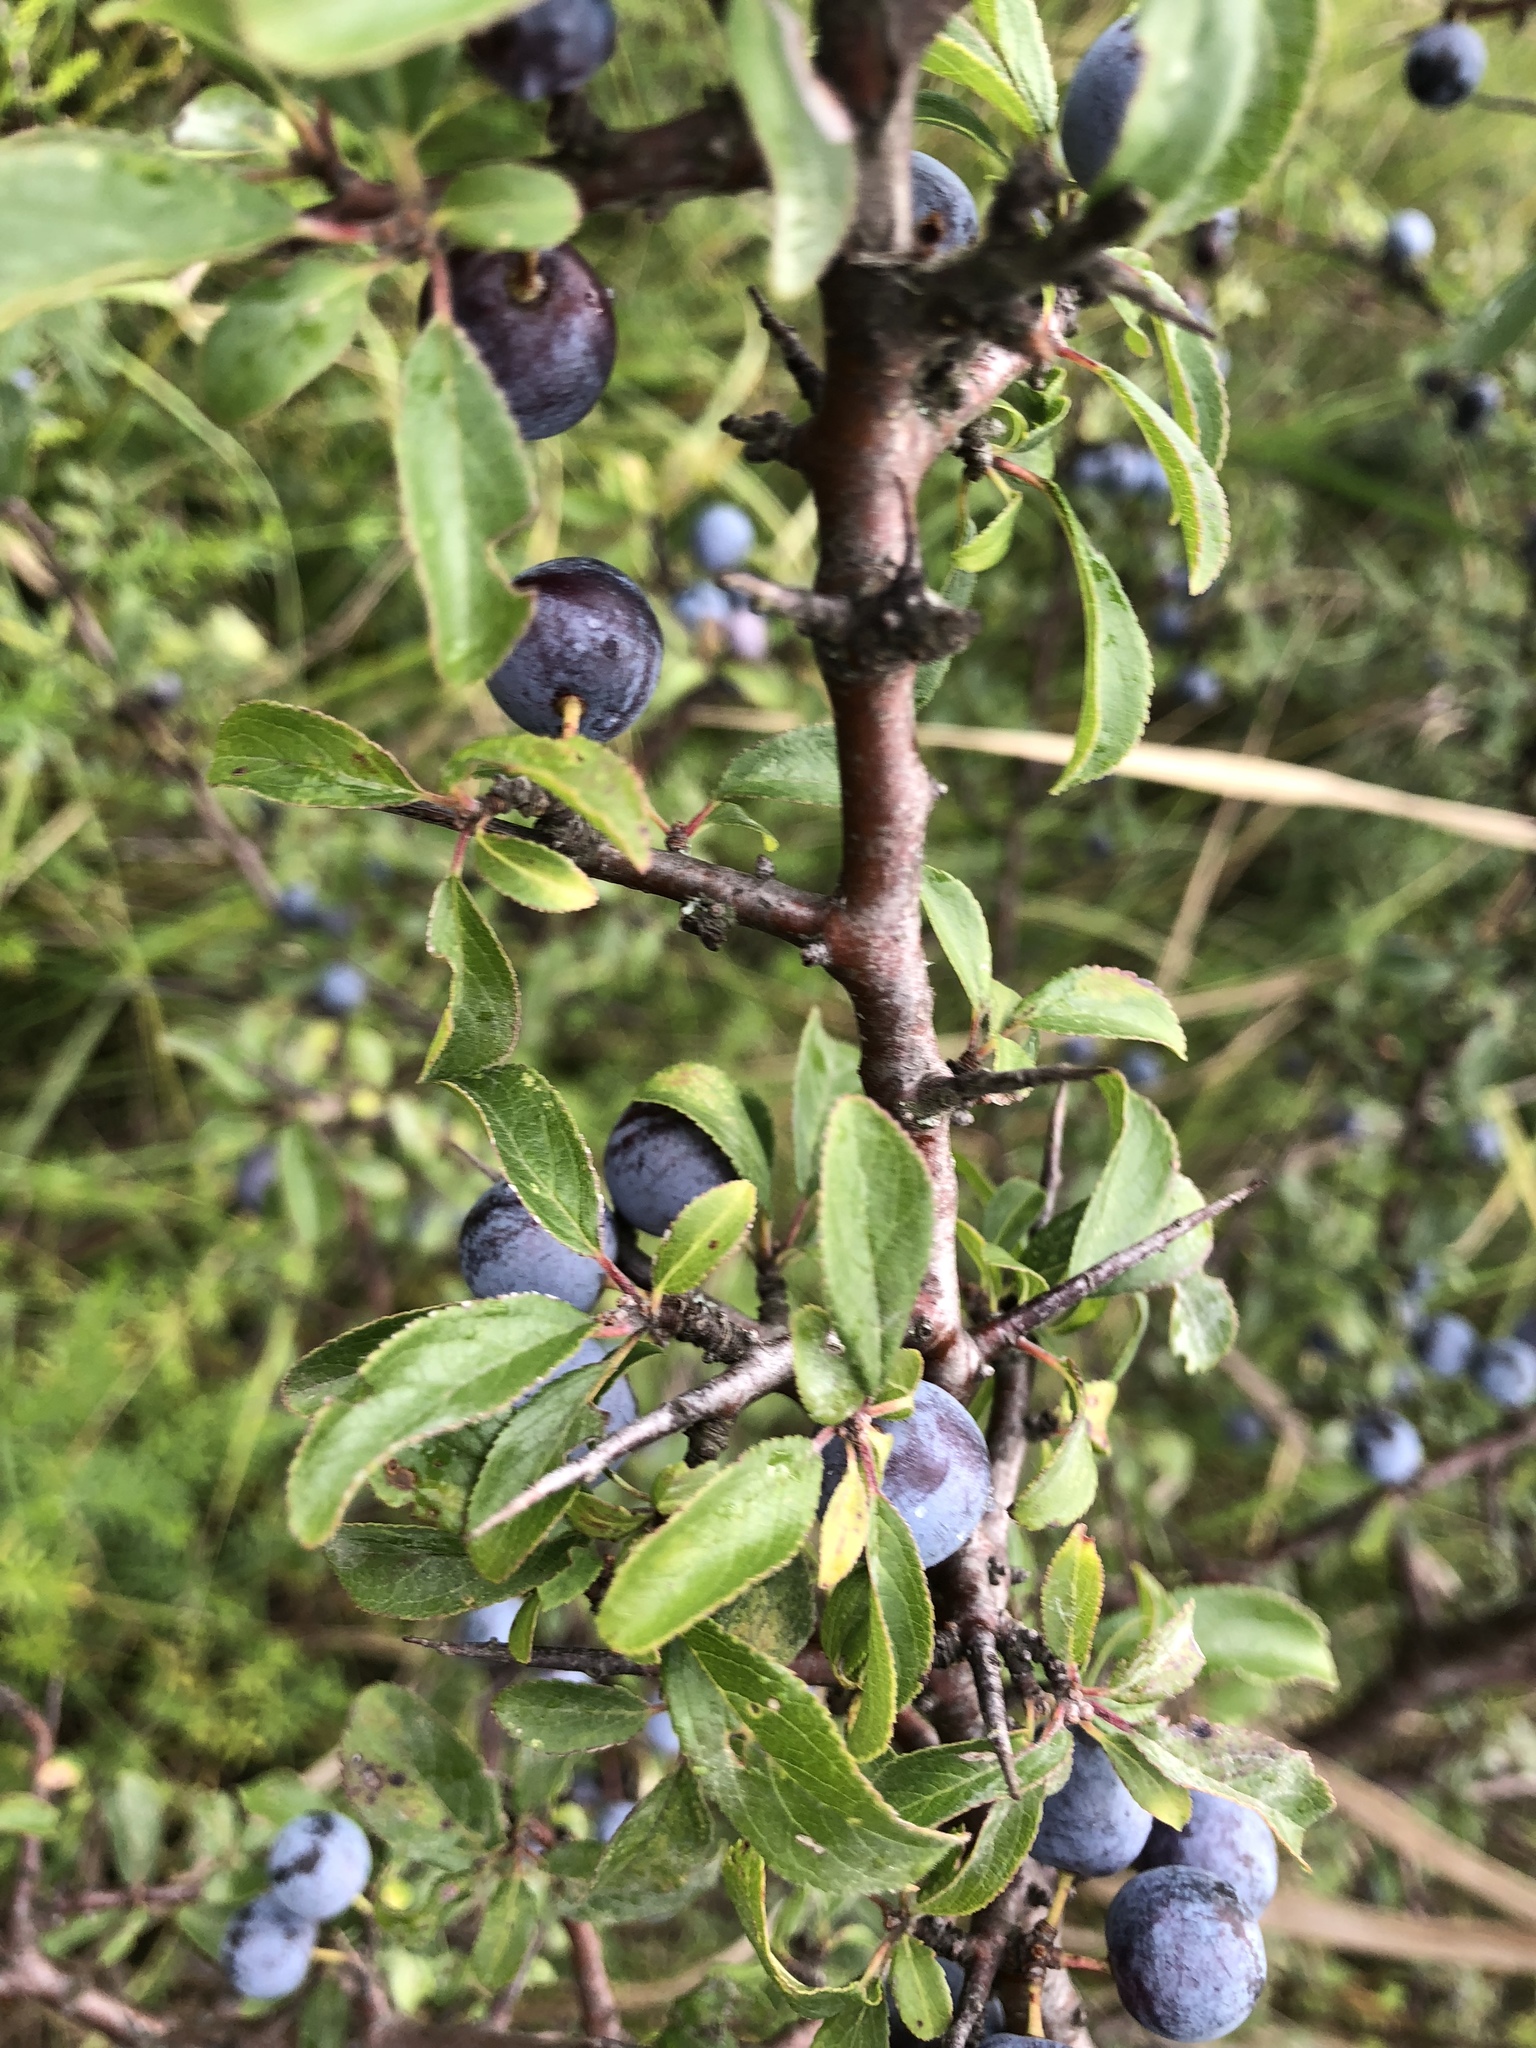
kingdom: Plantae
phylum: Tracheophyta
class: Magnoliopsida
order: Rosales
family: Rosaceae
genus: Prunus
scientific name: Prunus spinosa
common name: Blackthorn
